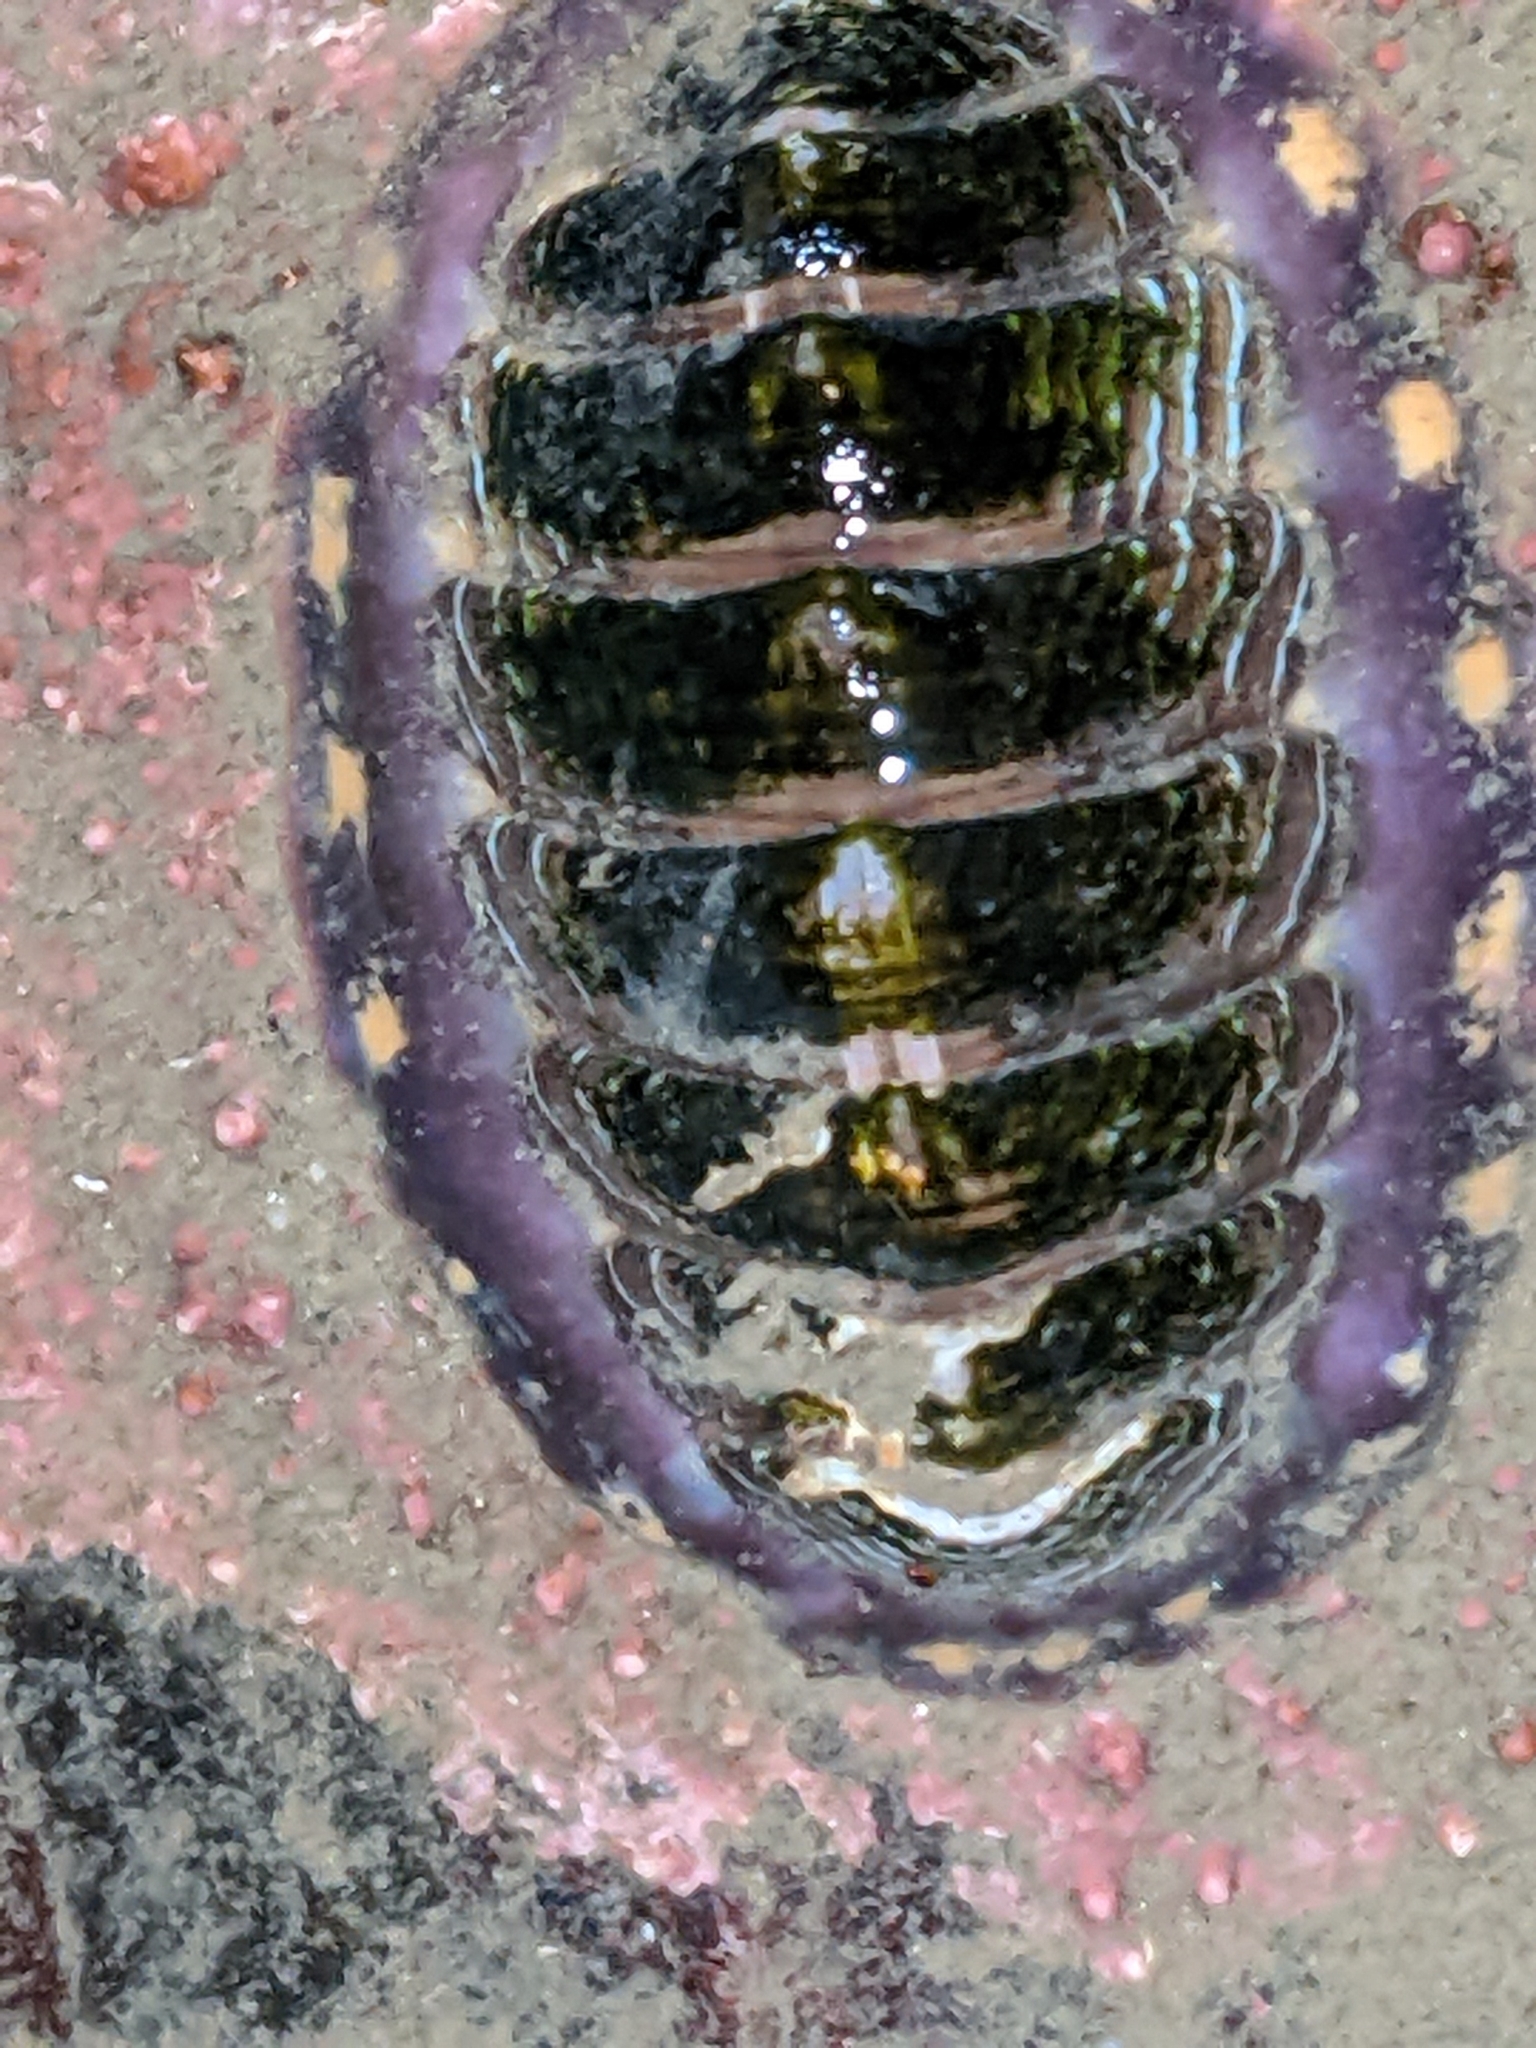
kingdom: Animalia
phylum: Mollusca
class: Polyplacophora
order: Chitonida
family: Tonicellidae
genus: Tonicella
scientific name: Tonicella lineata
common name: Lined chiton
